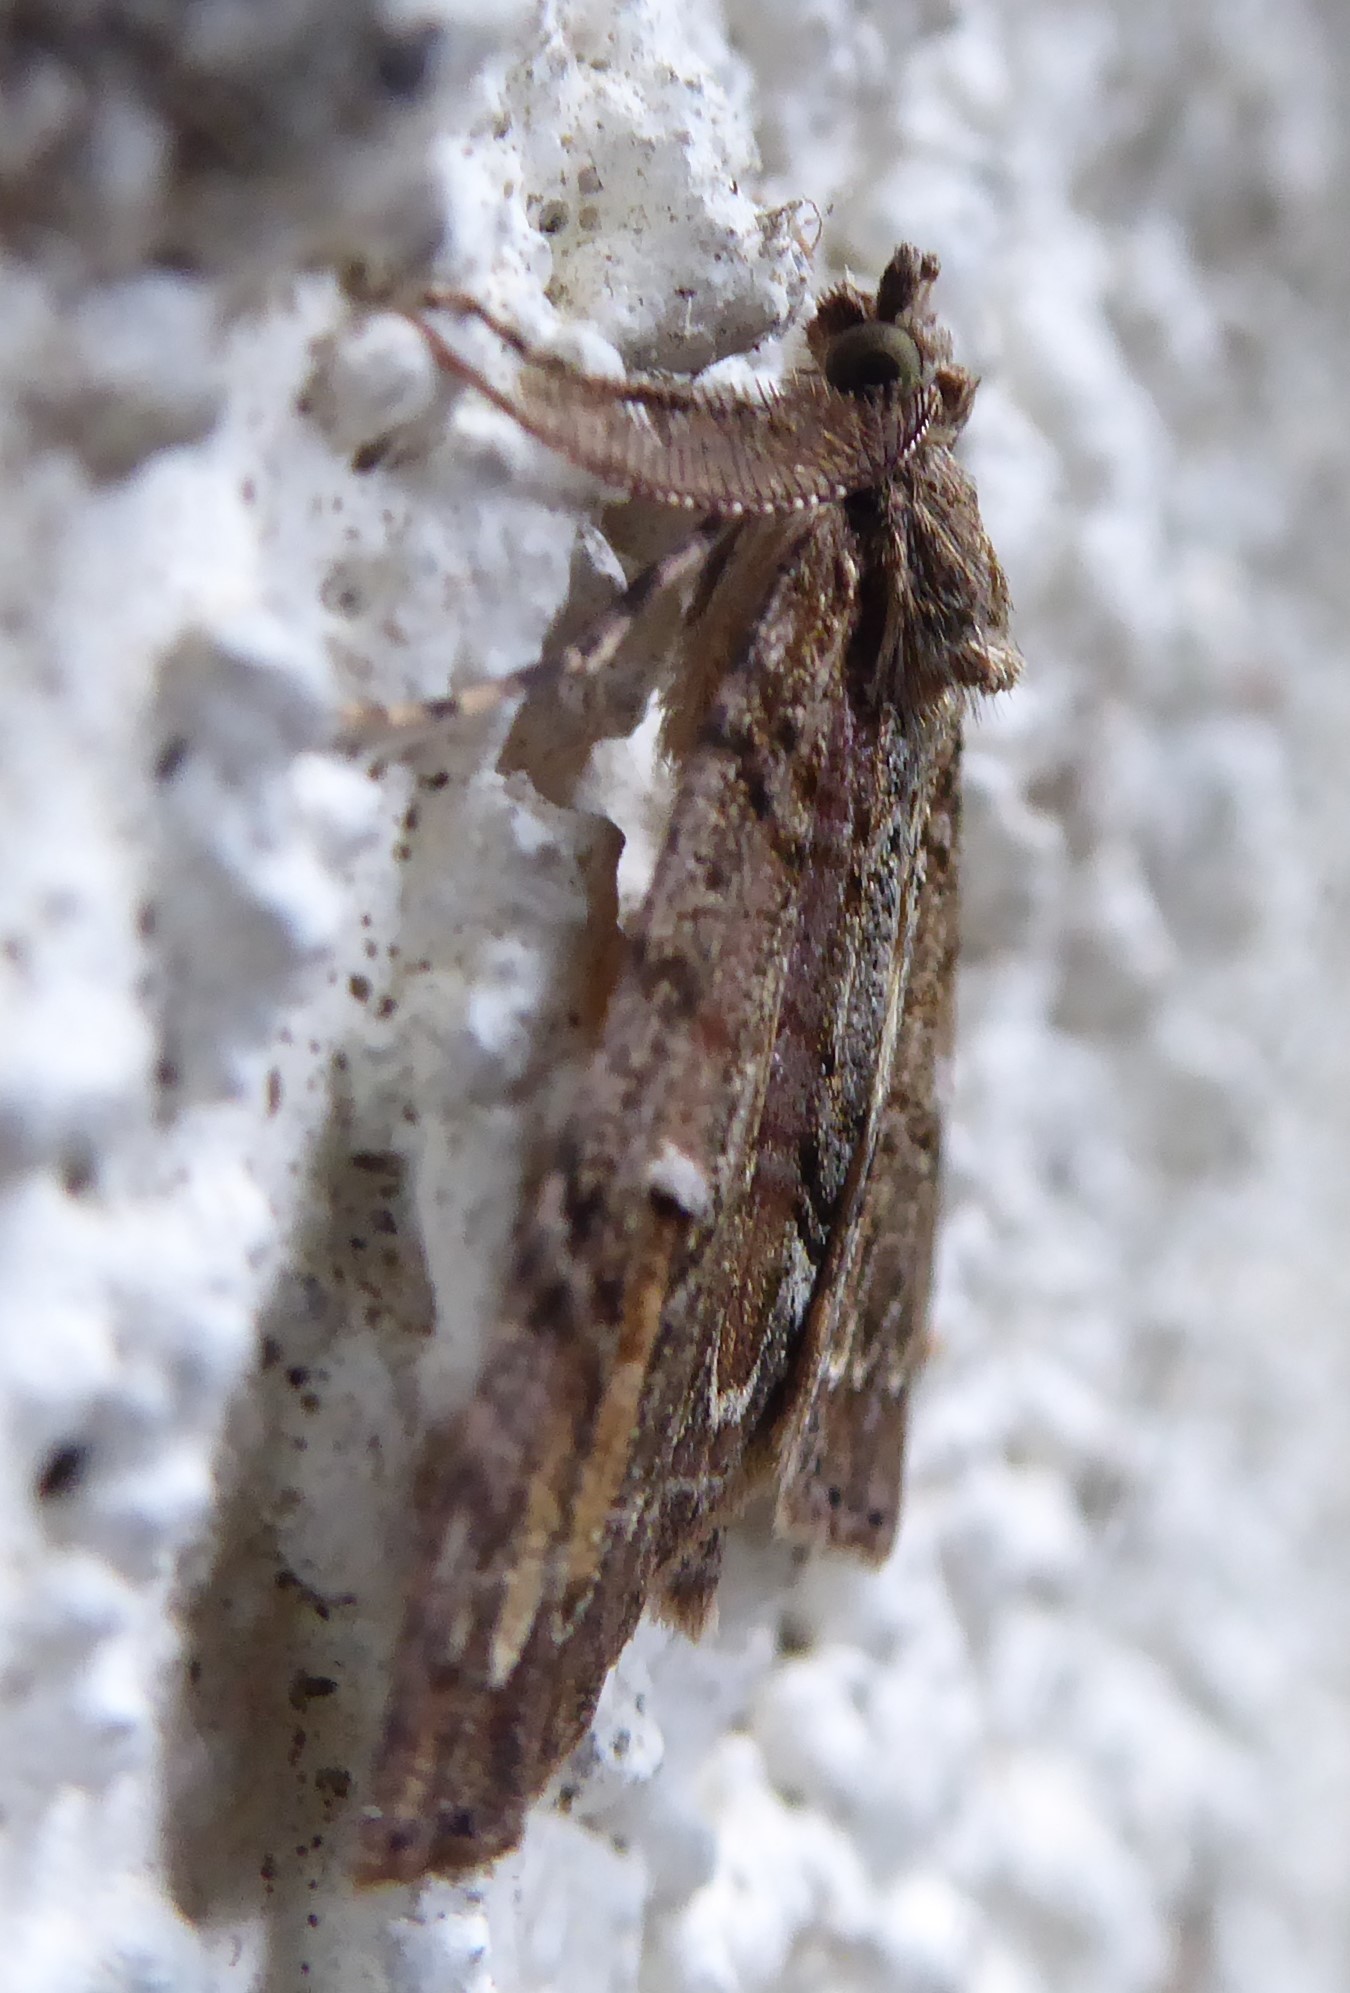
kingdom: Animalia
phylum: Arthropoda
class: Insecta
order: Lepidoptera
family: Geometridae
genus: Pseudocoremia
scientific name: Pseudocoremia suavis
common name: Common forest looper
